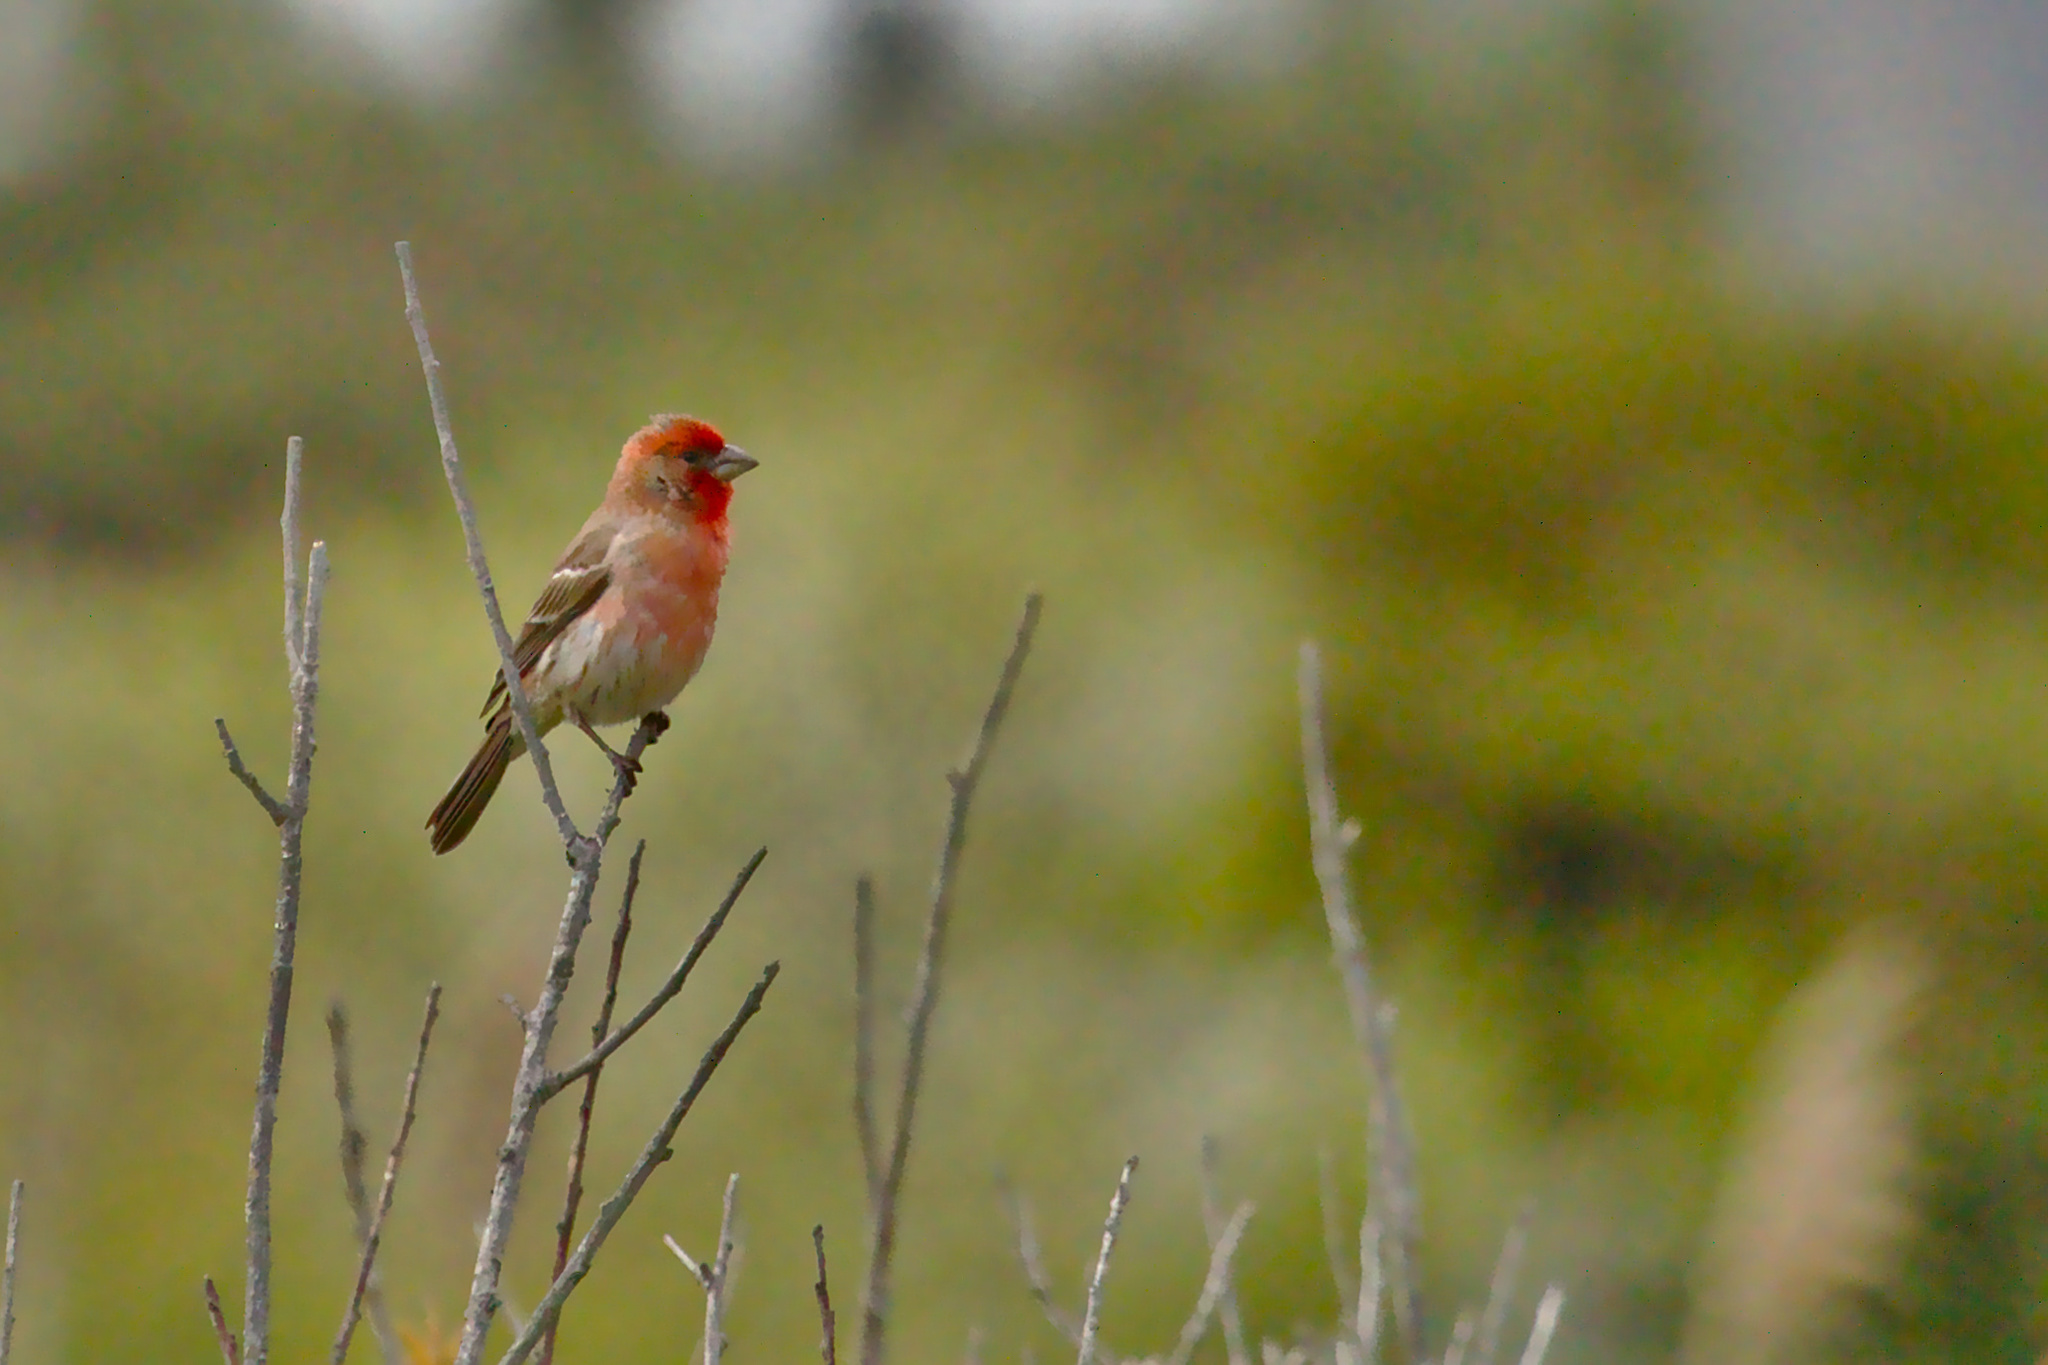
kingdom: Animalia
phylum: Chordata
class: Aves
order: Passeriformes
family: Fringillidae
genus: Haemorhous
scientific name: Haemorhous mexicanus
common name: House finch
